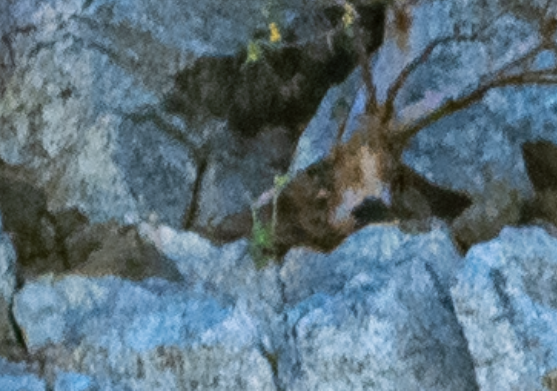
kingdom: Plantae
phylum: Tracheophyta
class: Magnoliopsida
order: Saxifragales
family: Crassulaceae
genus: Dudleya
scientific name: Dudleya nubigena
